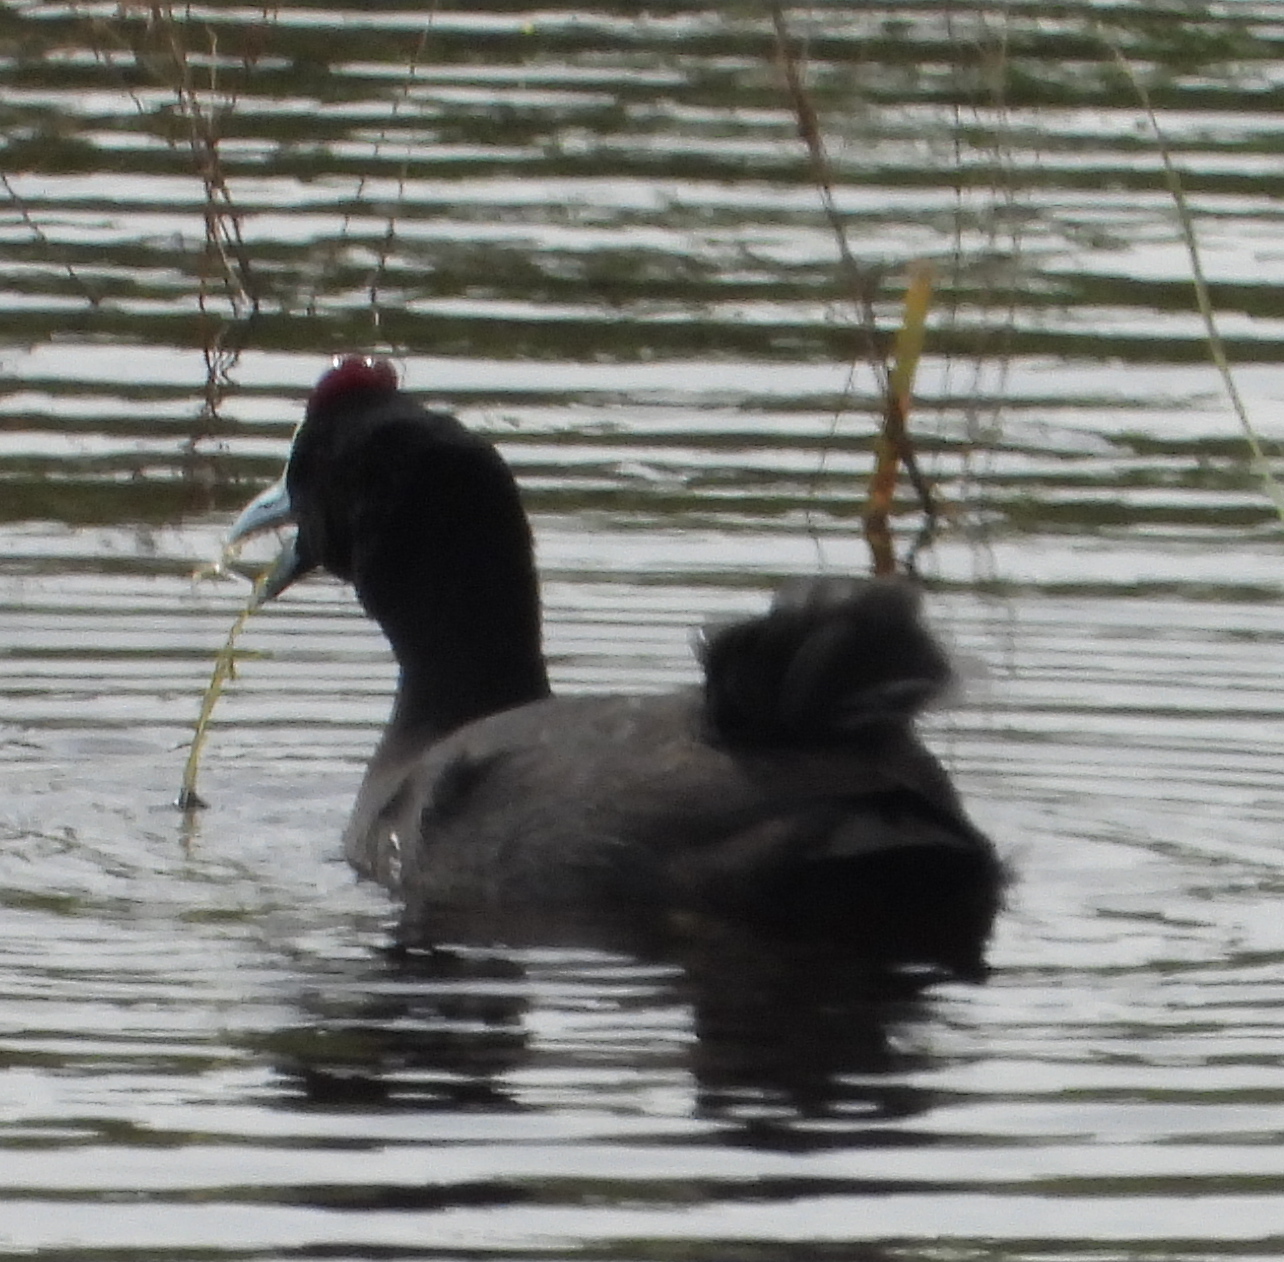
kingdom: Animalia
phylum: Chordata
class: Aves
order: Gruiformes
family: Rallidae
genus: Fulica
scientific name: Fulica cristata
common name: Red-knobbed coot
